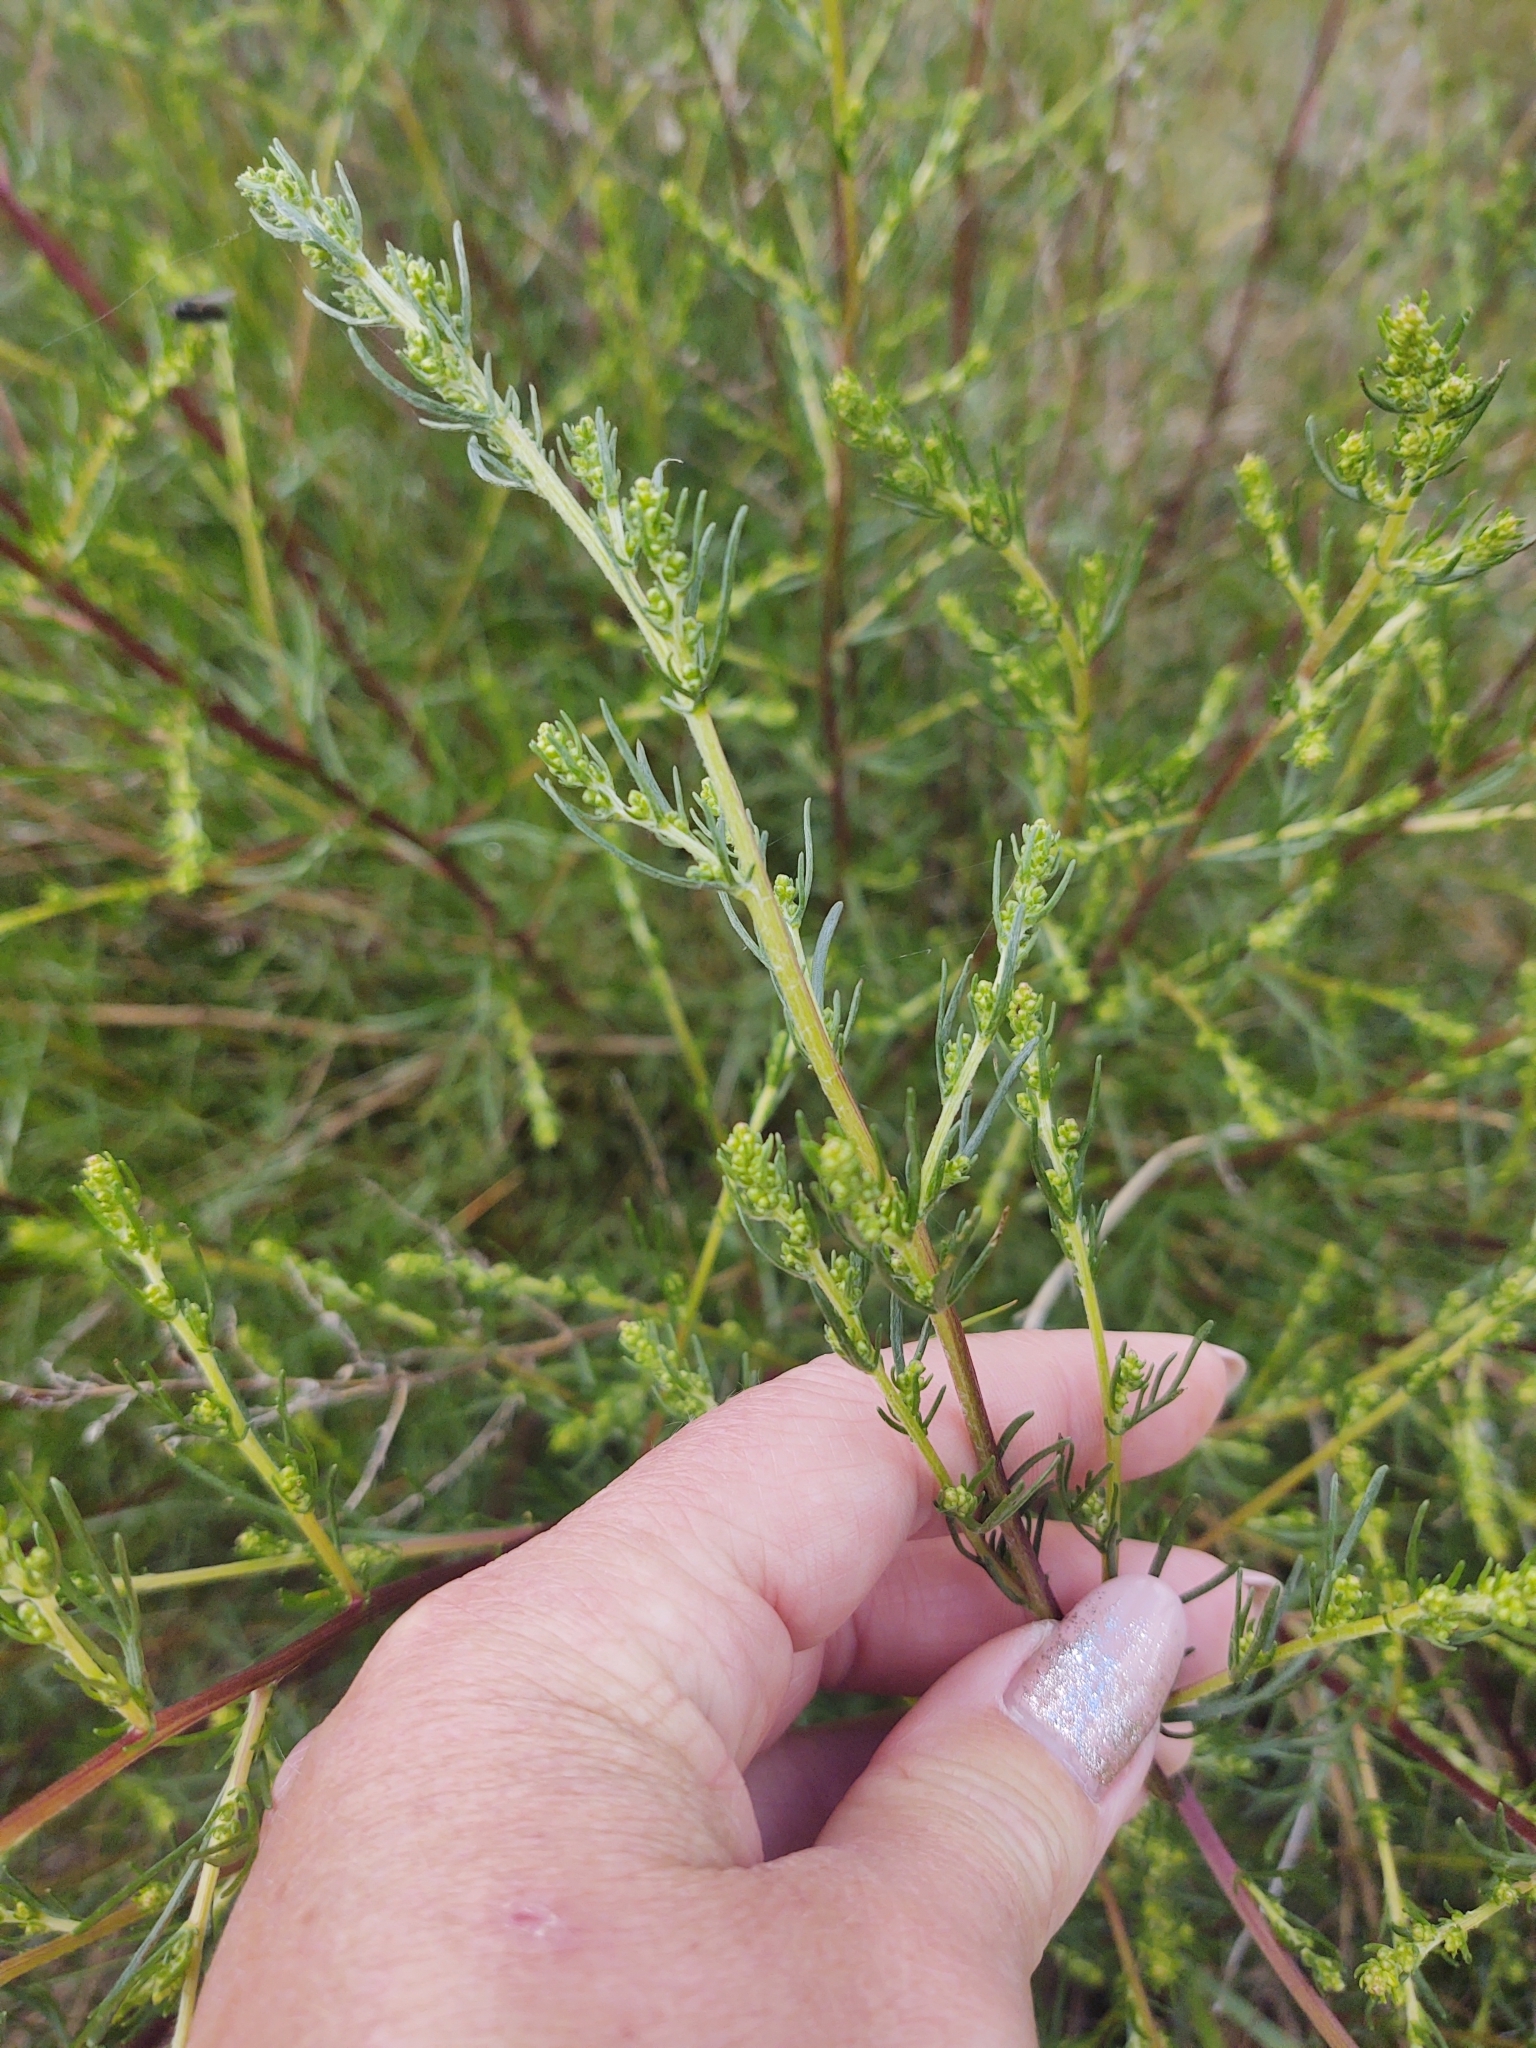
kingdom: Plantae
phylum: Tracheophyta
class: Magnoliopsida
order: Asterales
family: Asteraceae
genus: Artemisia
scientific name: Artemisia campestris
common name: Field wormwood
